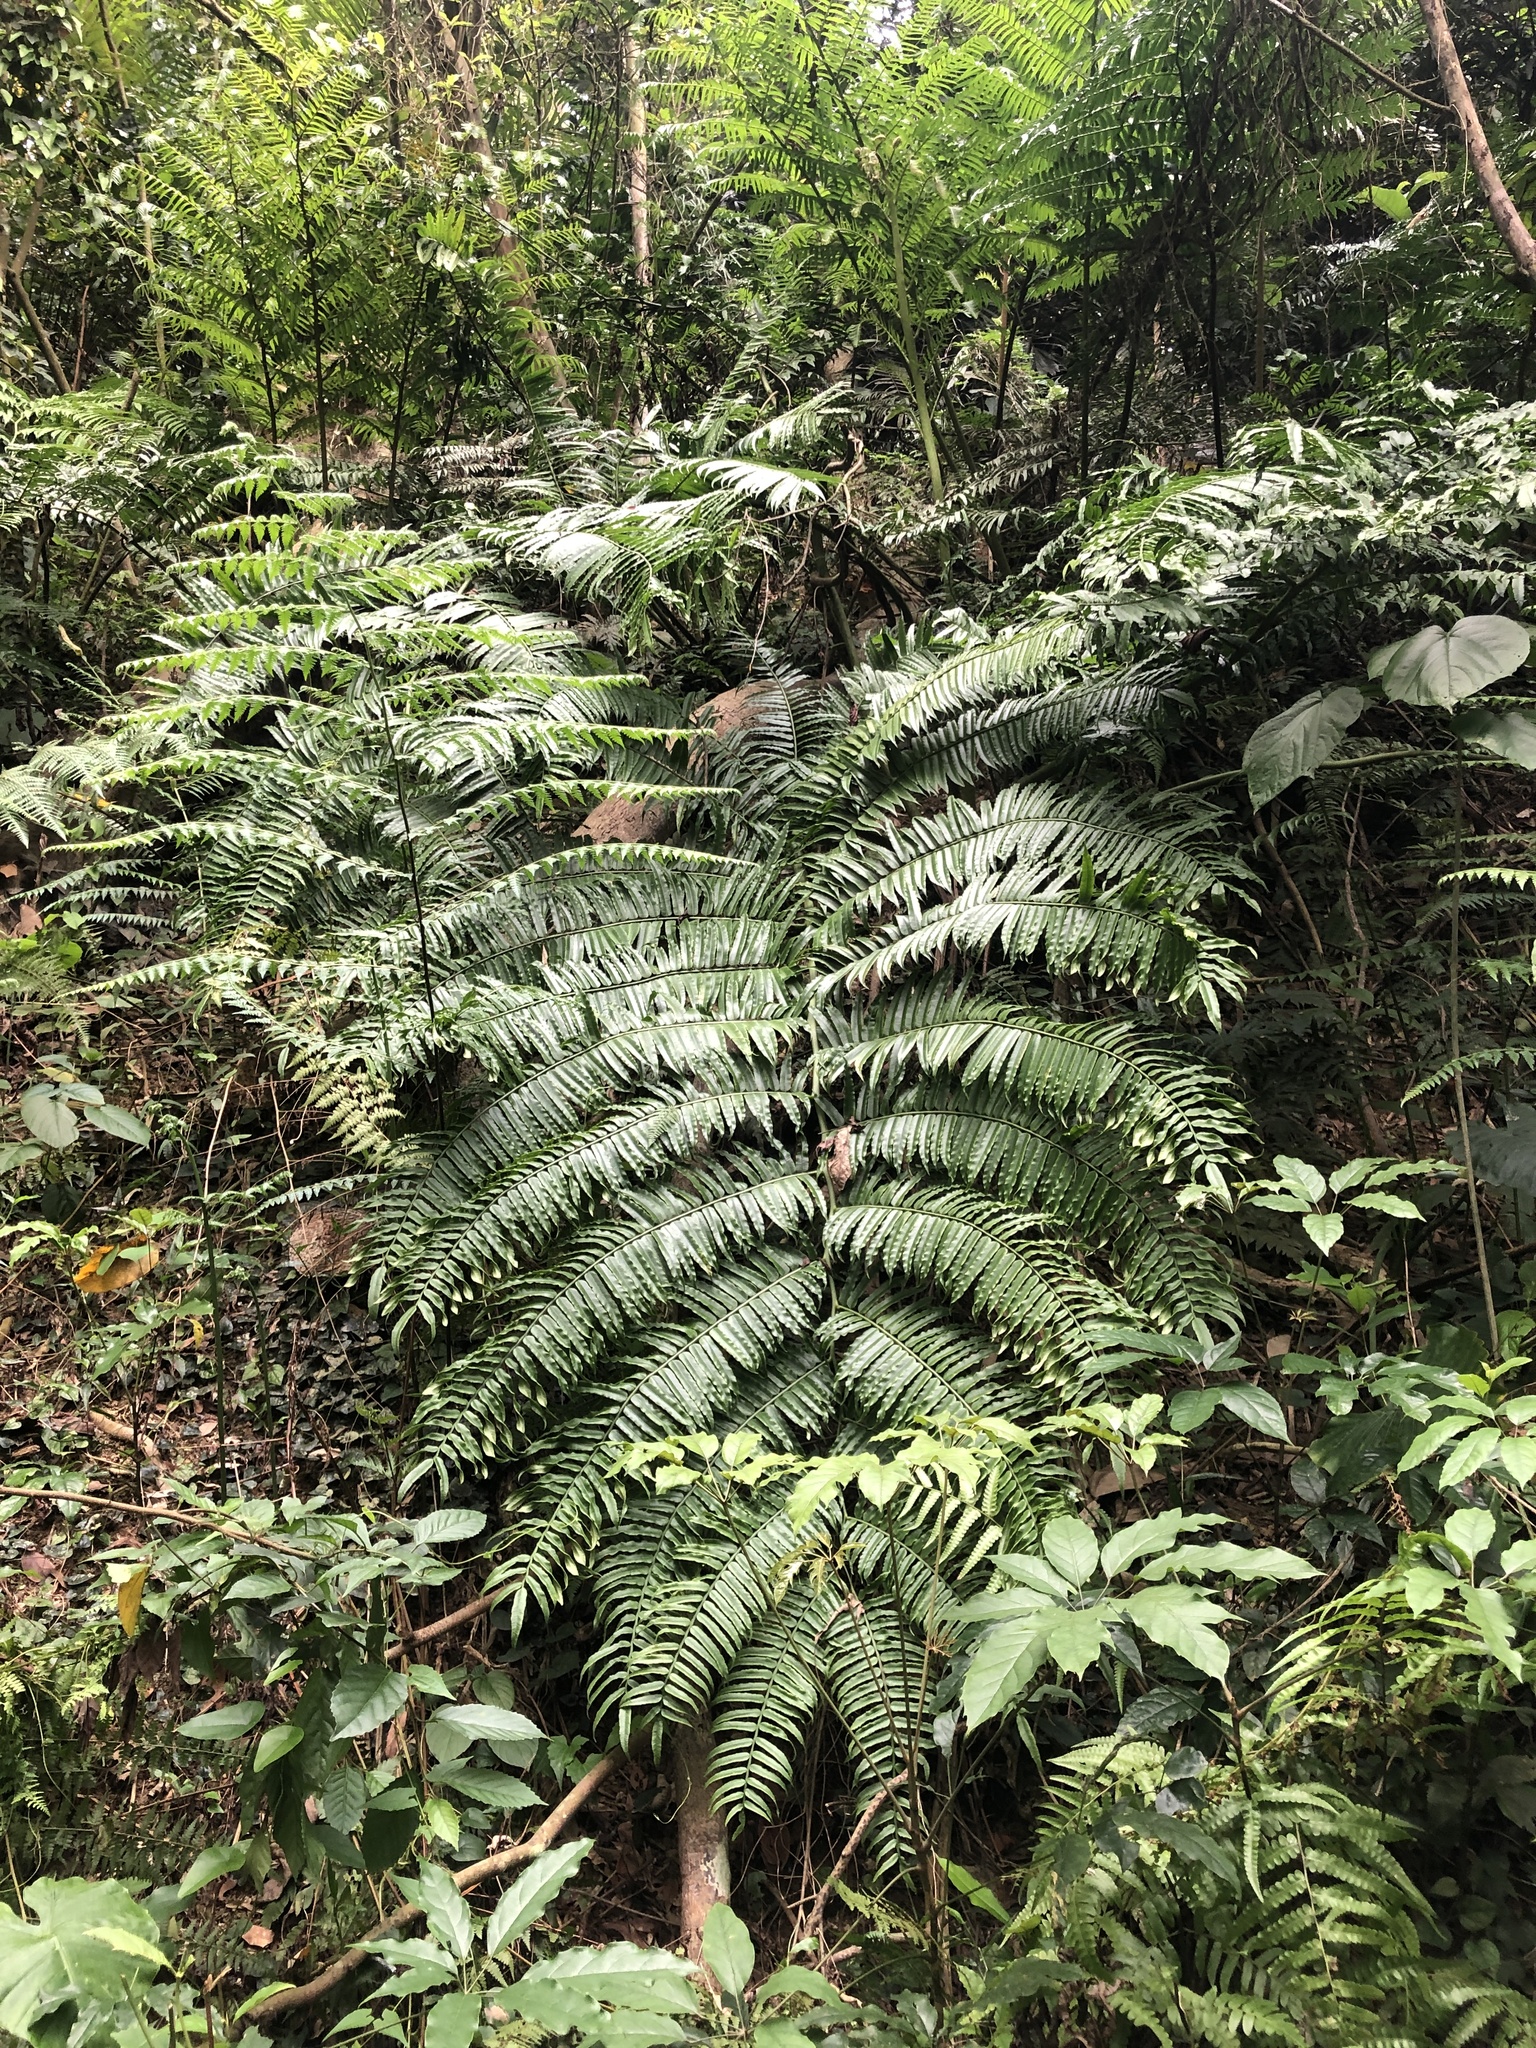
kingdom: Plantae
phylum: Tracheophyta
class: Polypodiopsida
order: Marattiales
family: Marattiaceae
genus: Angiopteris
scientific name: Angiopteris lygodiifolia
